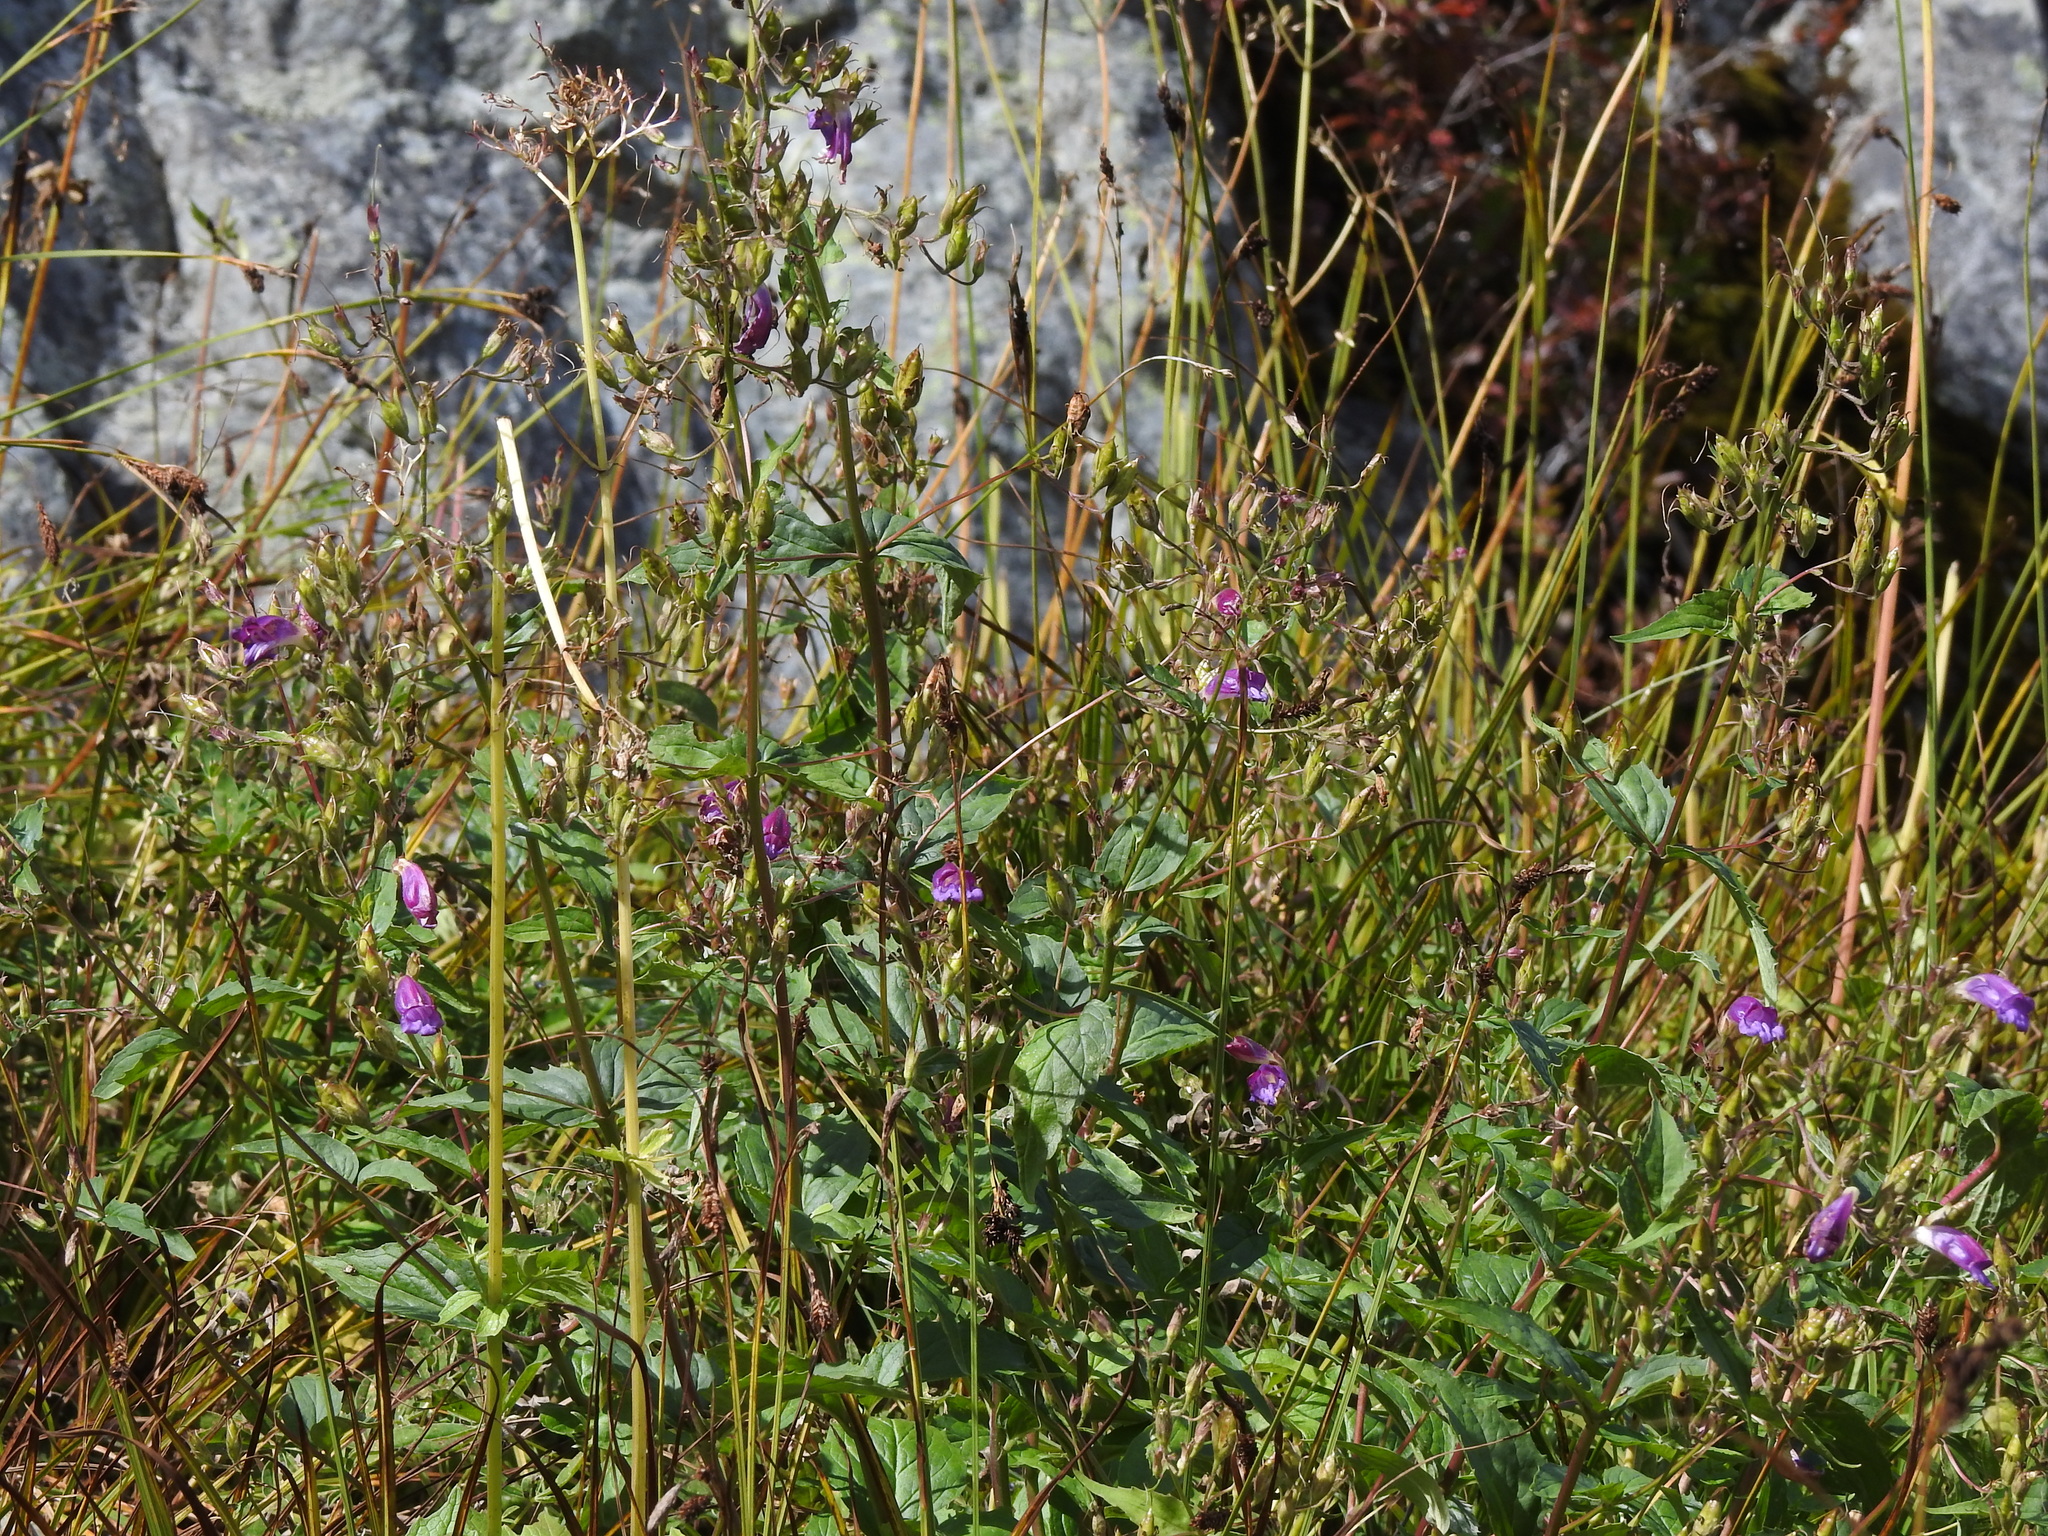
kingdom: Plantae
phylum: Tracheophyta
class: Magnoliopsida
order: Lamiales
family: Plantaginaceae
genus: Nothochelone
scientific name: Nothochelone nemorosa
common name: Woodland beardtongue
